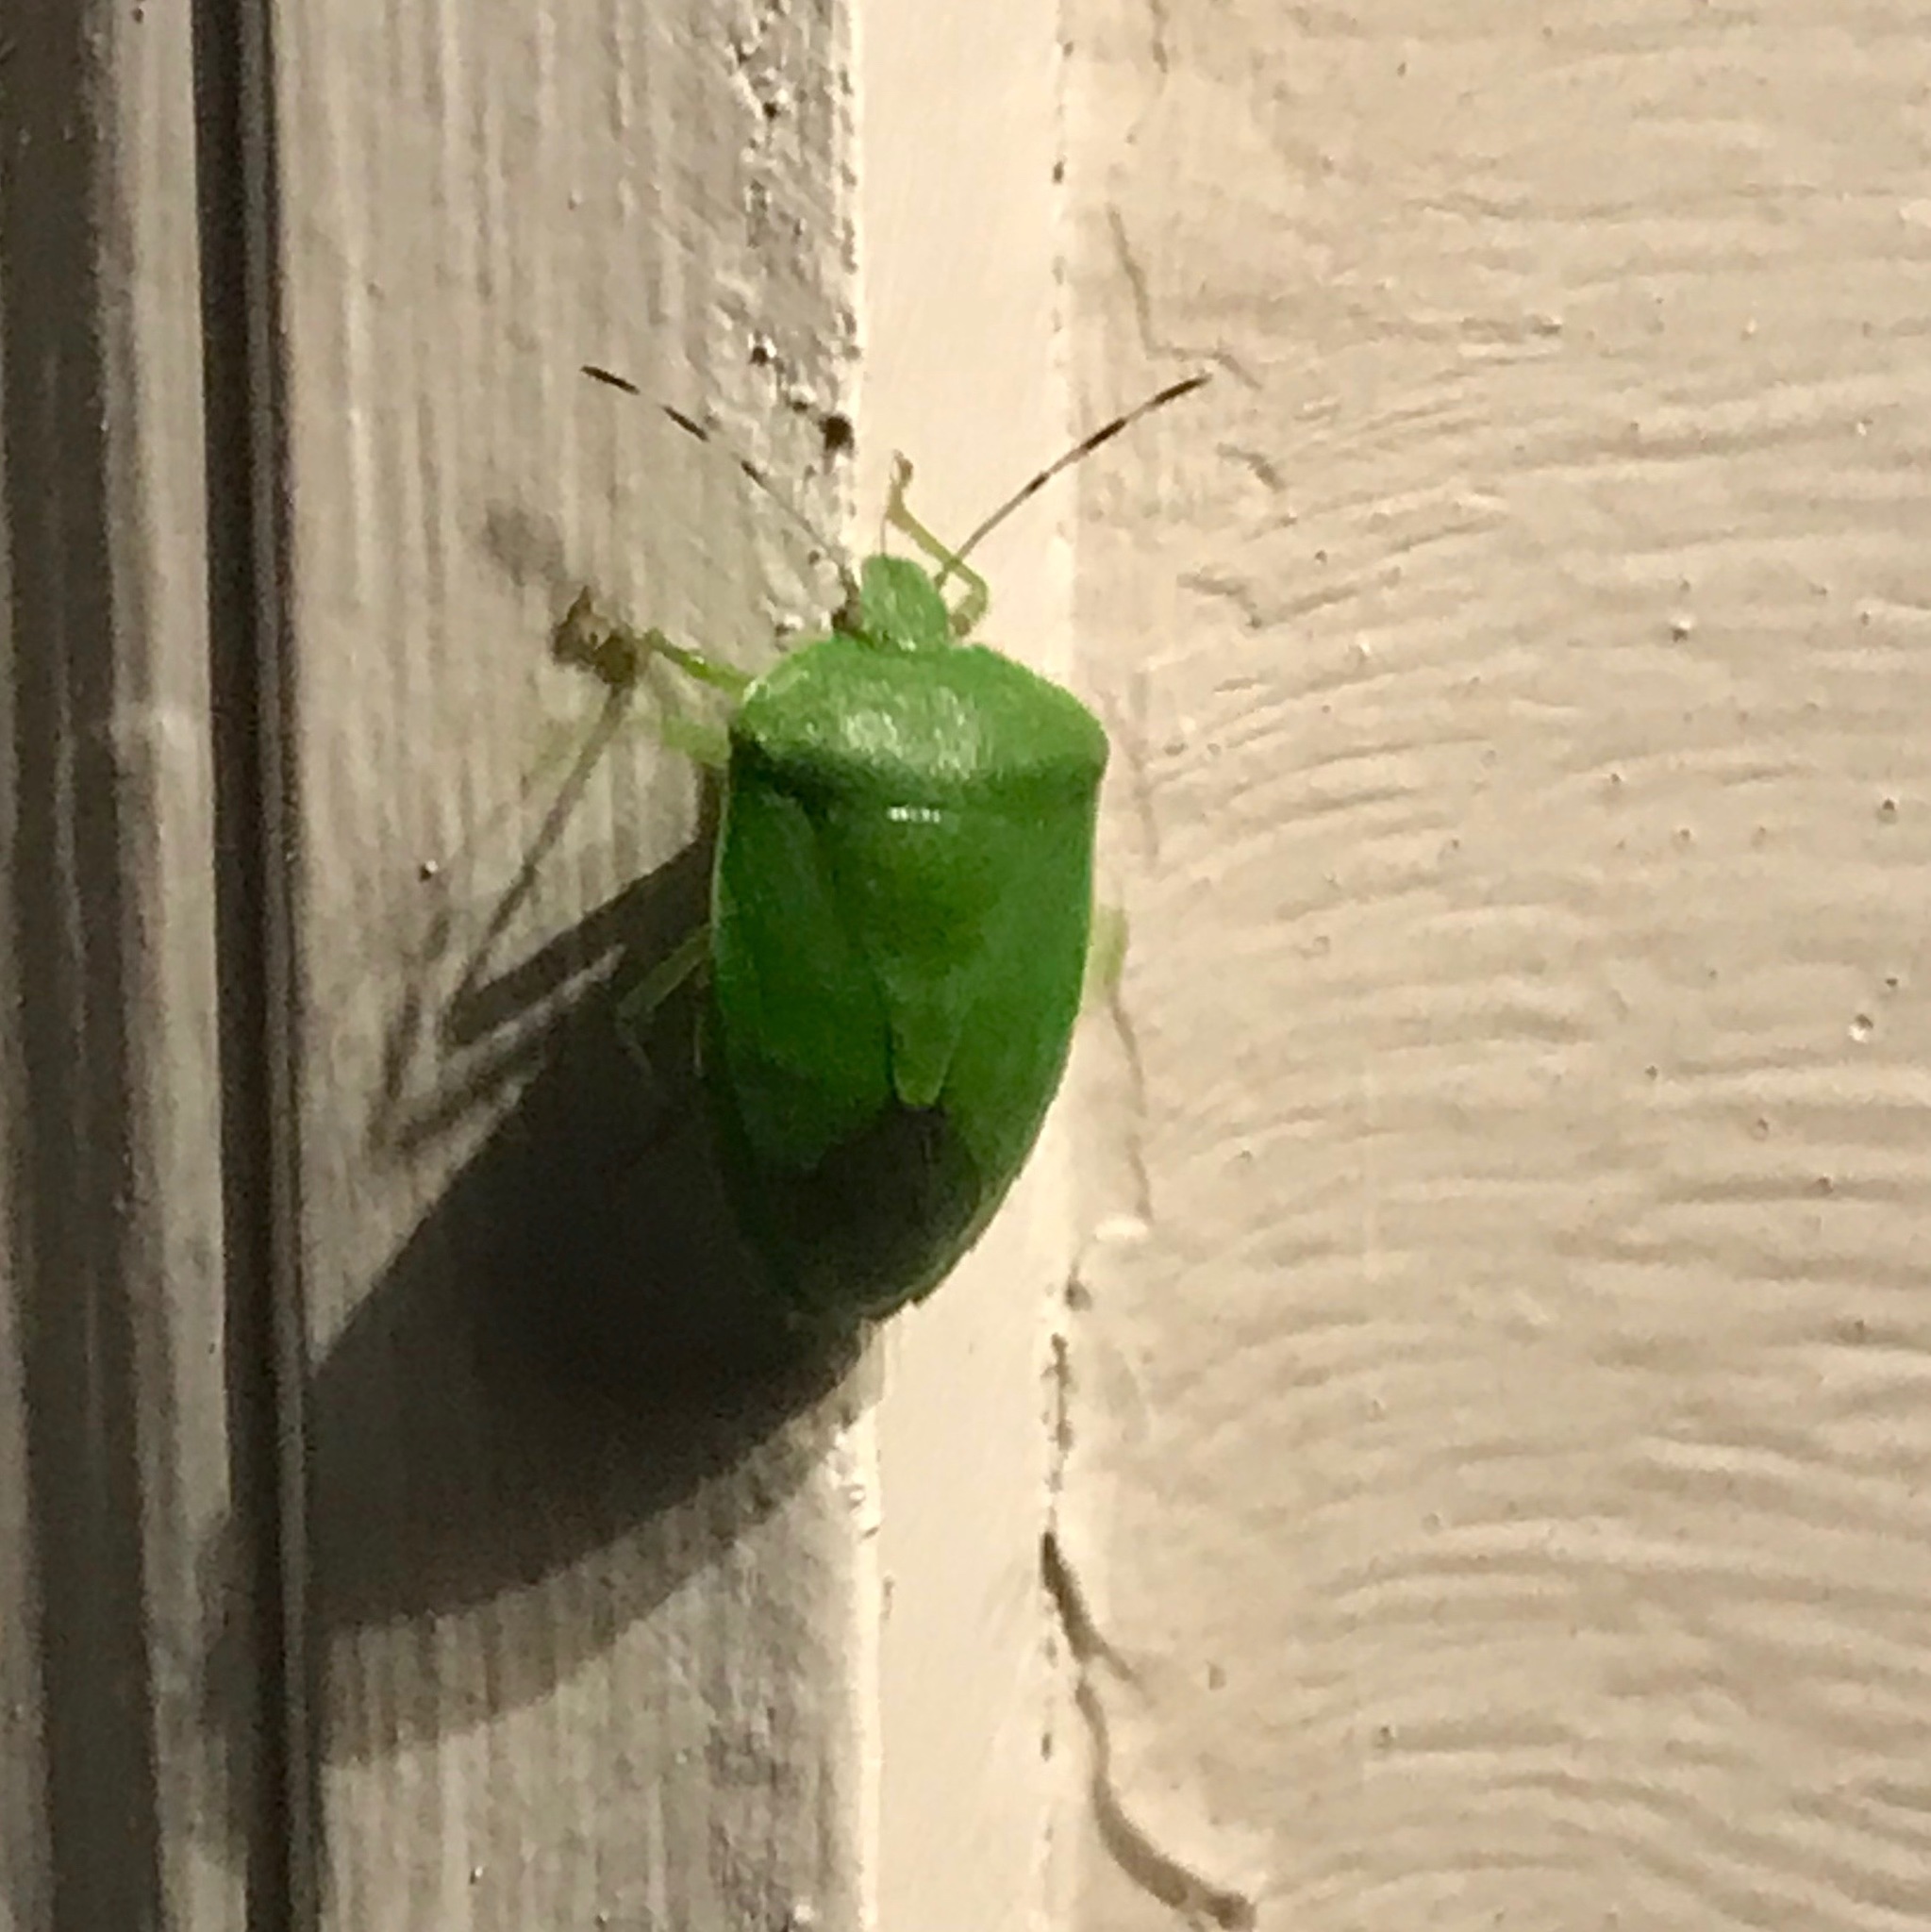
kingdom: Animalia
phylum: Arthropoda
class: Insecta
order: Hemiptera
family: Pentatomidae
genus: Chinavia
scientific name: Chinavia hilaris
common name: Green stink bug
